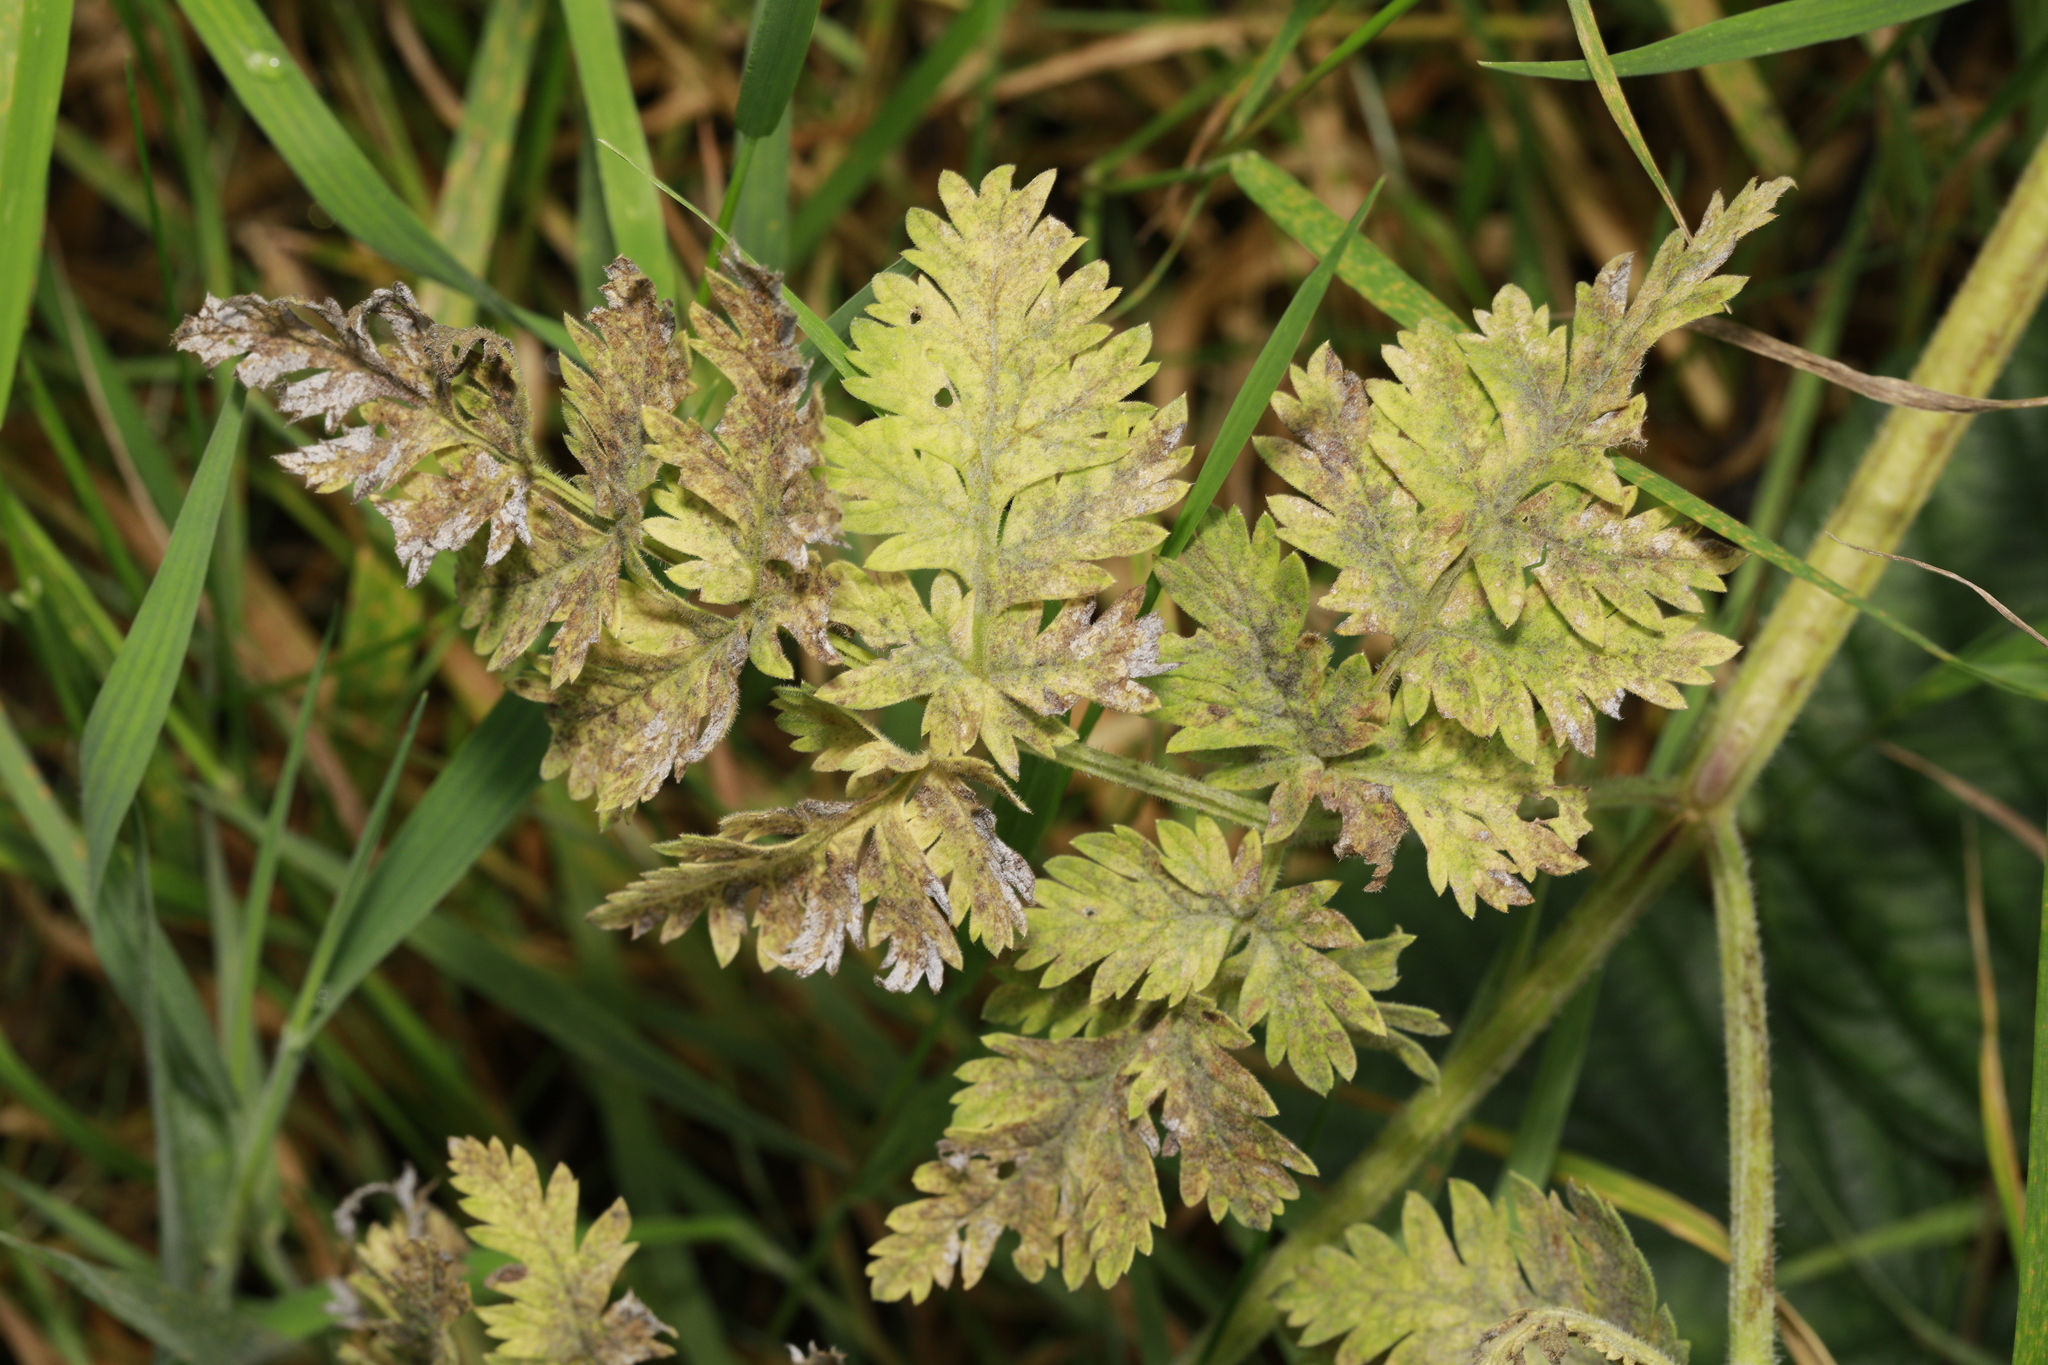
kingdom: Plantae
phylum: Tracheophyta
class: Magnoliopsida
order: Apiales
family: Apiaceae
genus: Anthriscus
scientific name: Anthriscus sylvestris
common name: Cow parsley
